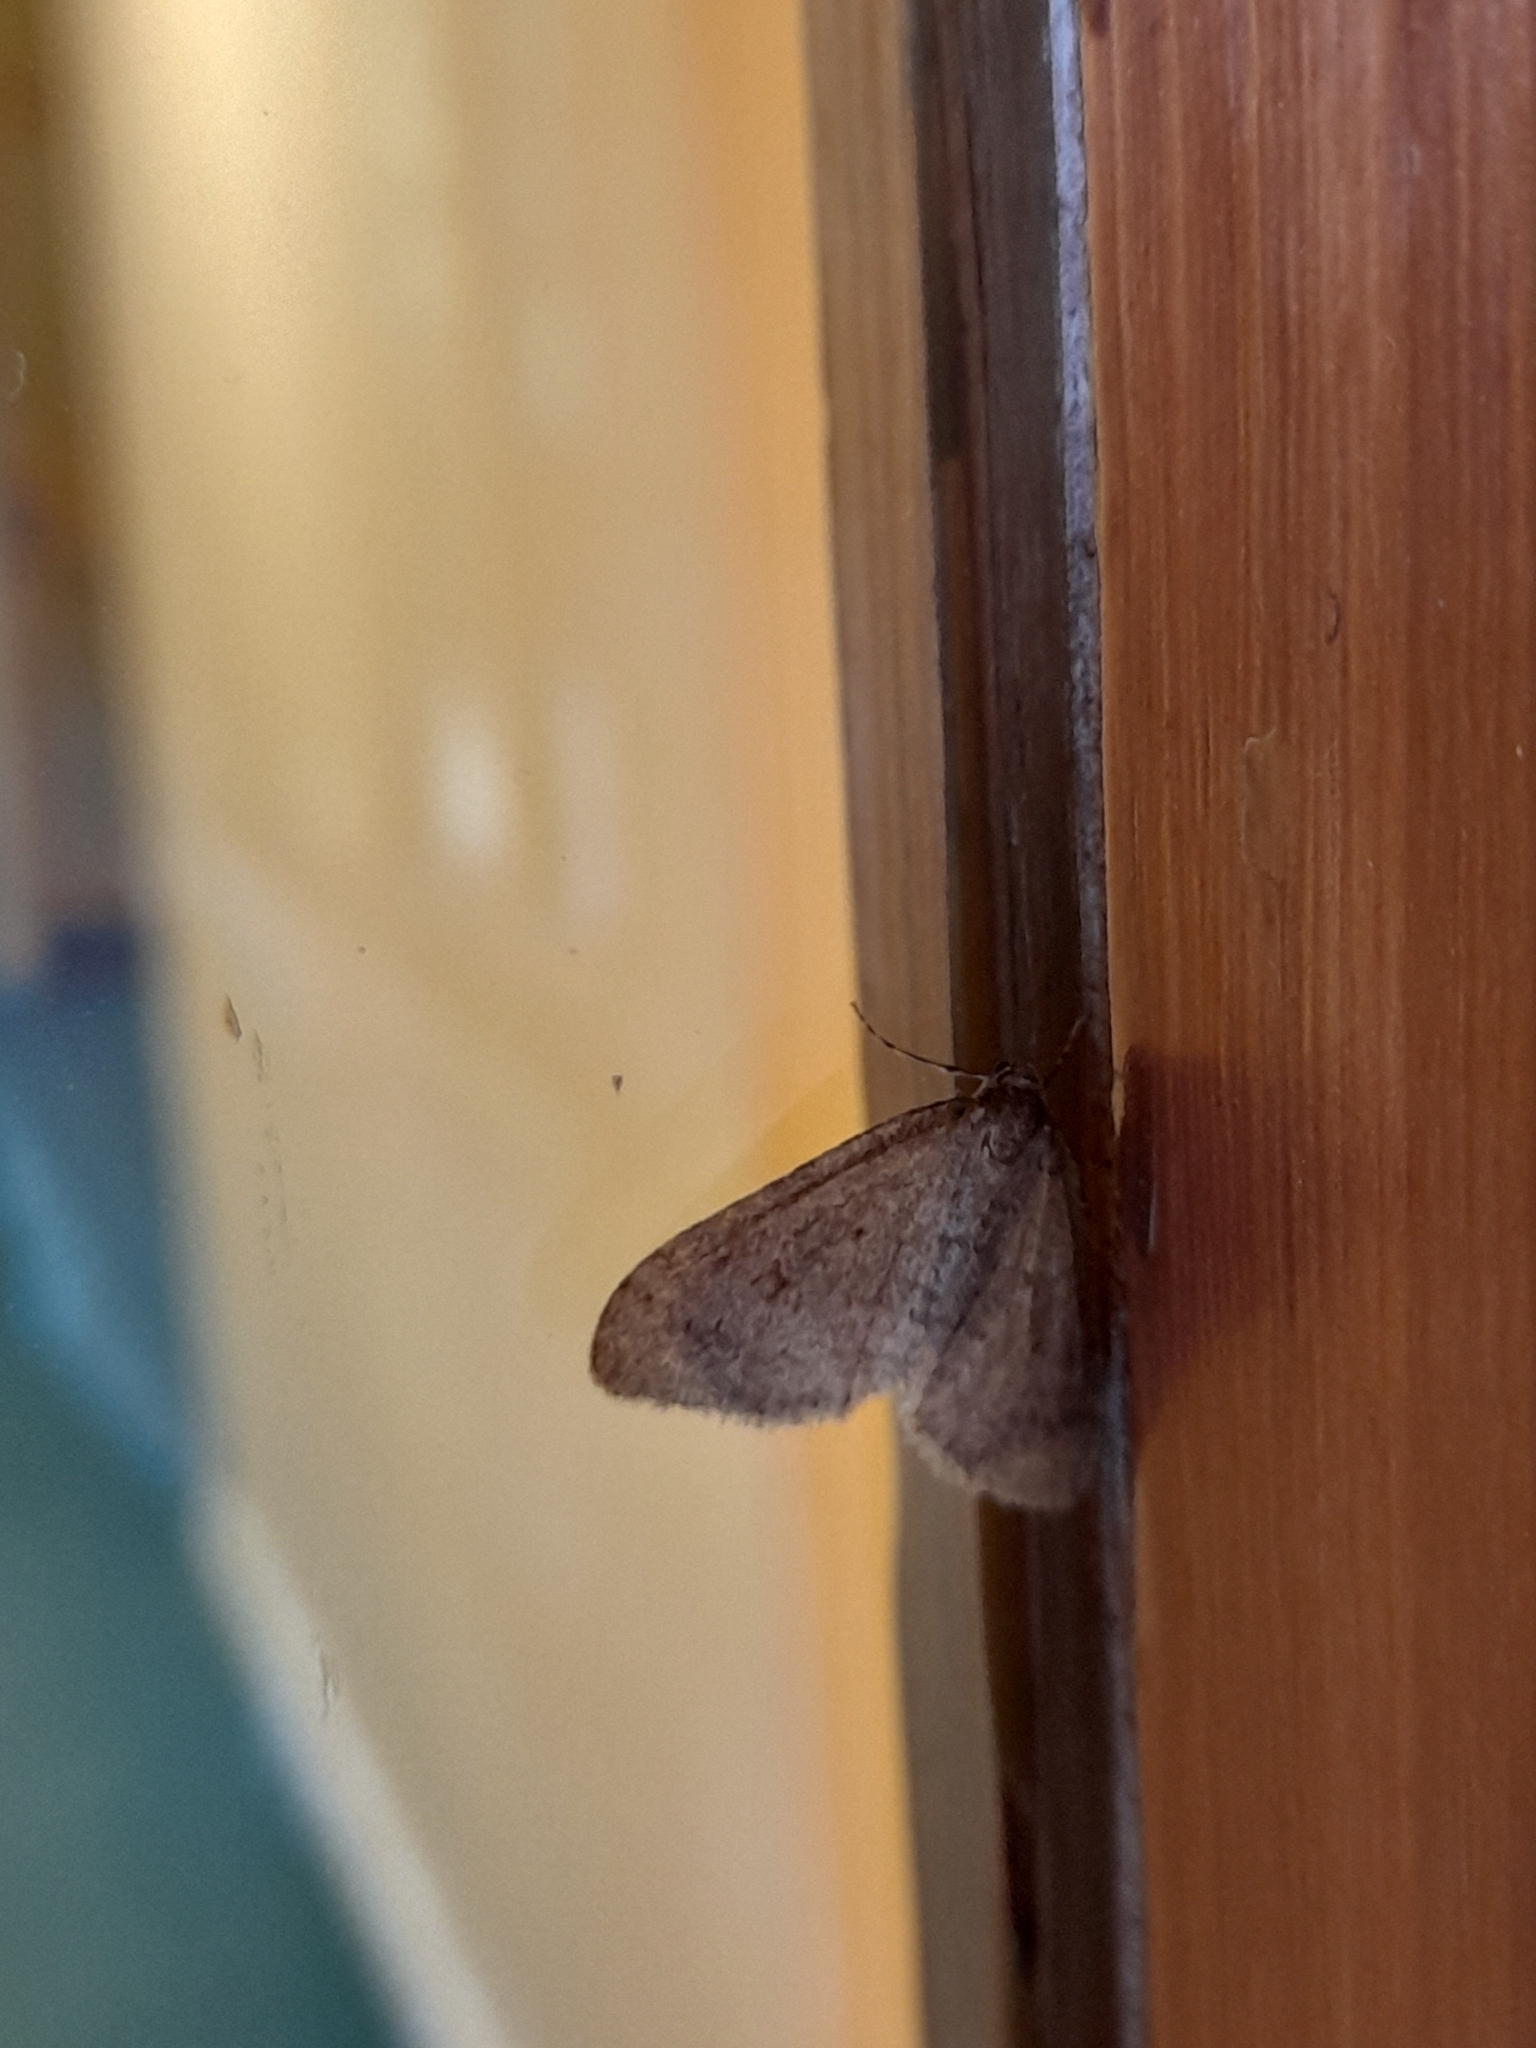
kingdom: Animalia
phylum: Arthropoda
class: Insecta
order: Lepidoptera
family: Geometridae
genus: Operophtera
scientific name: Operophtera brumata
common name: Winter moth
